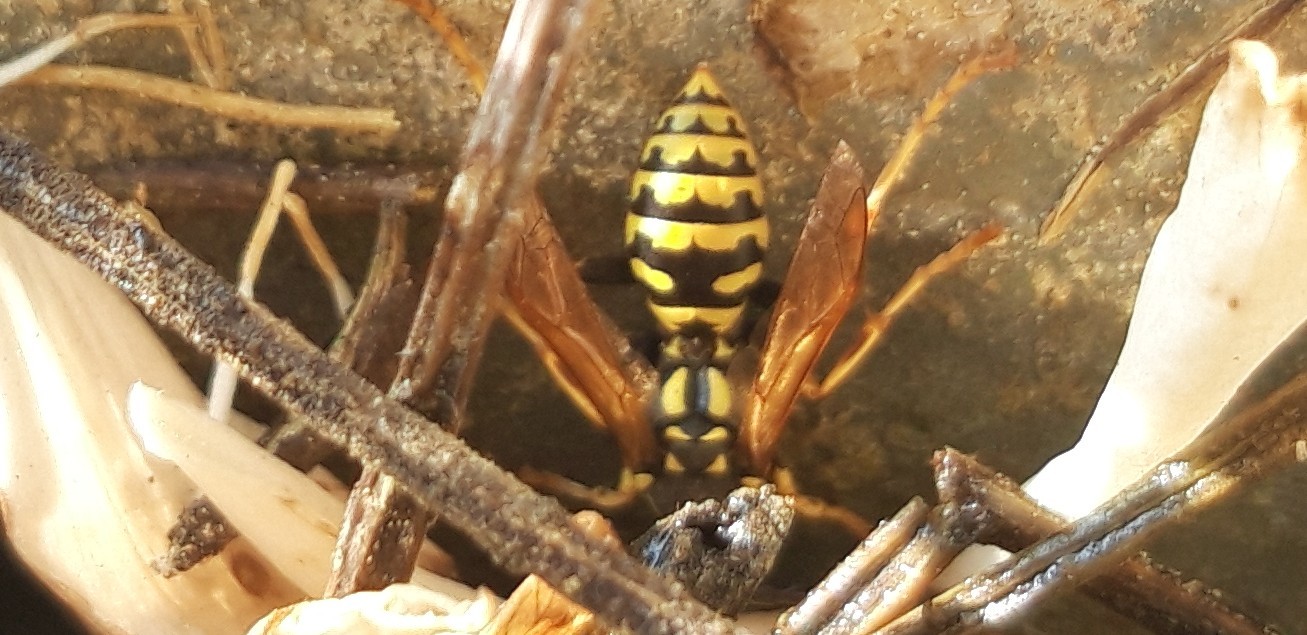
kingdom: Animalia
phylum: Arthropoda
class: Insecta
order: Hymenoptera
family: Eumenidae
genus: Polistes
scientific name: Polistes dominula
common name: Paper wasp
